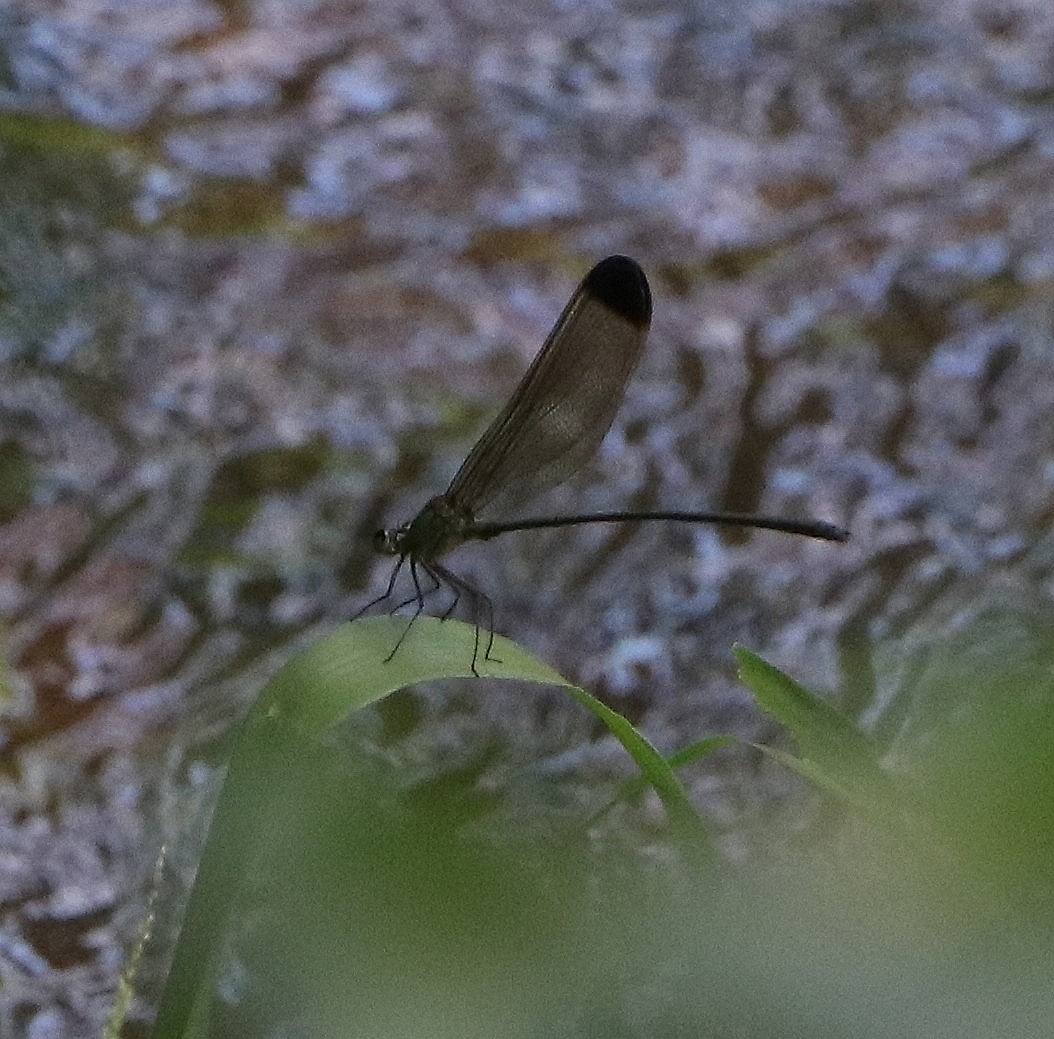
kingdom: Animalia
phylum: Arthropoda
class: Insecta
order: Odonata
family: Calopterygidae
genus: Vestalis
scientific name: Vestalis apicalis
